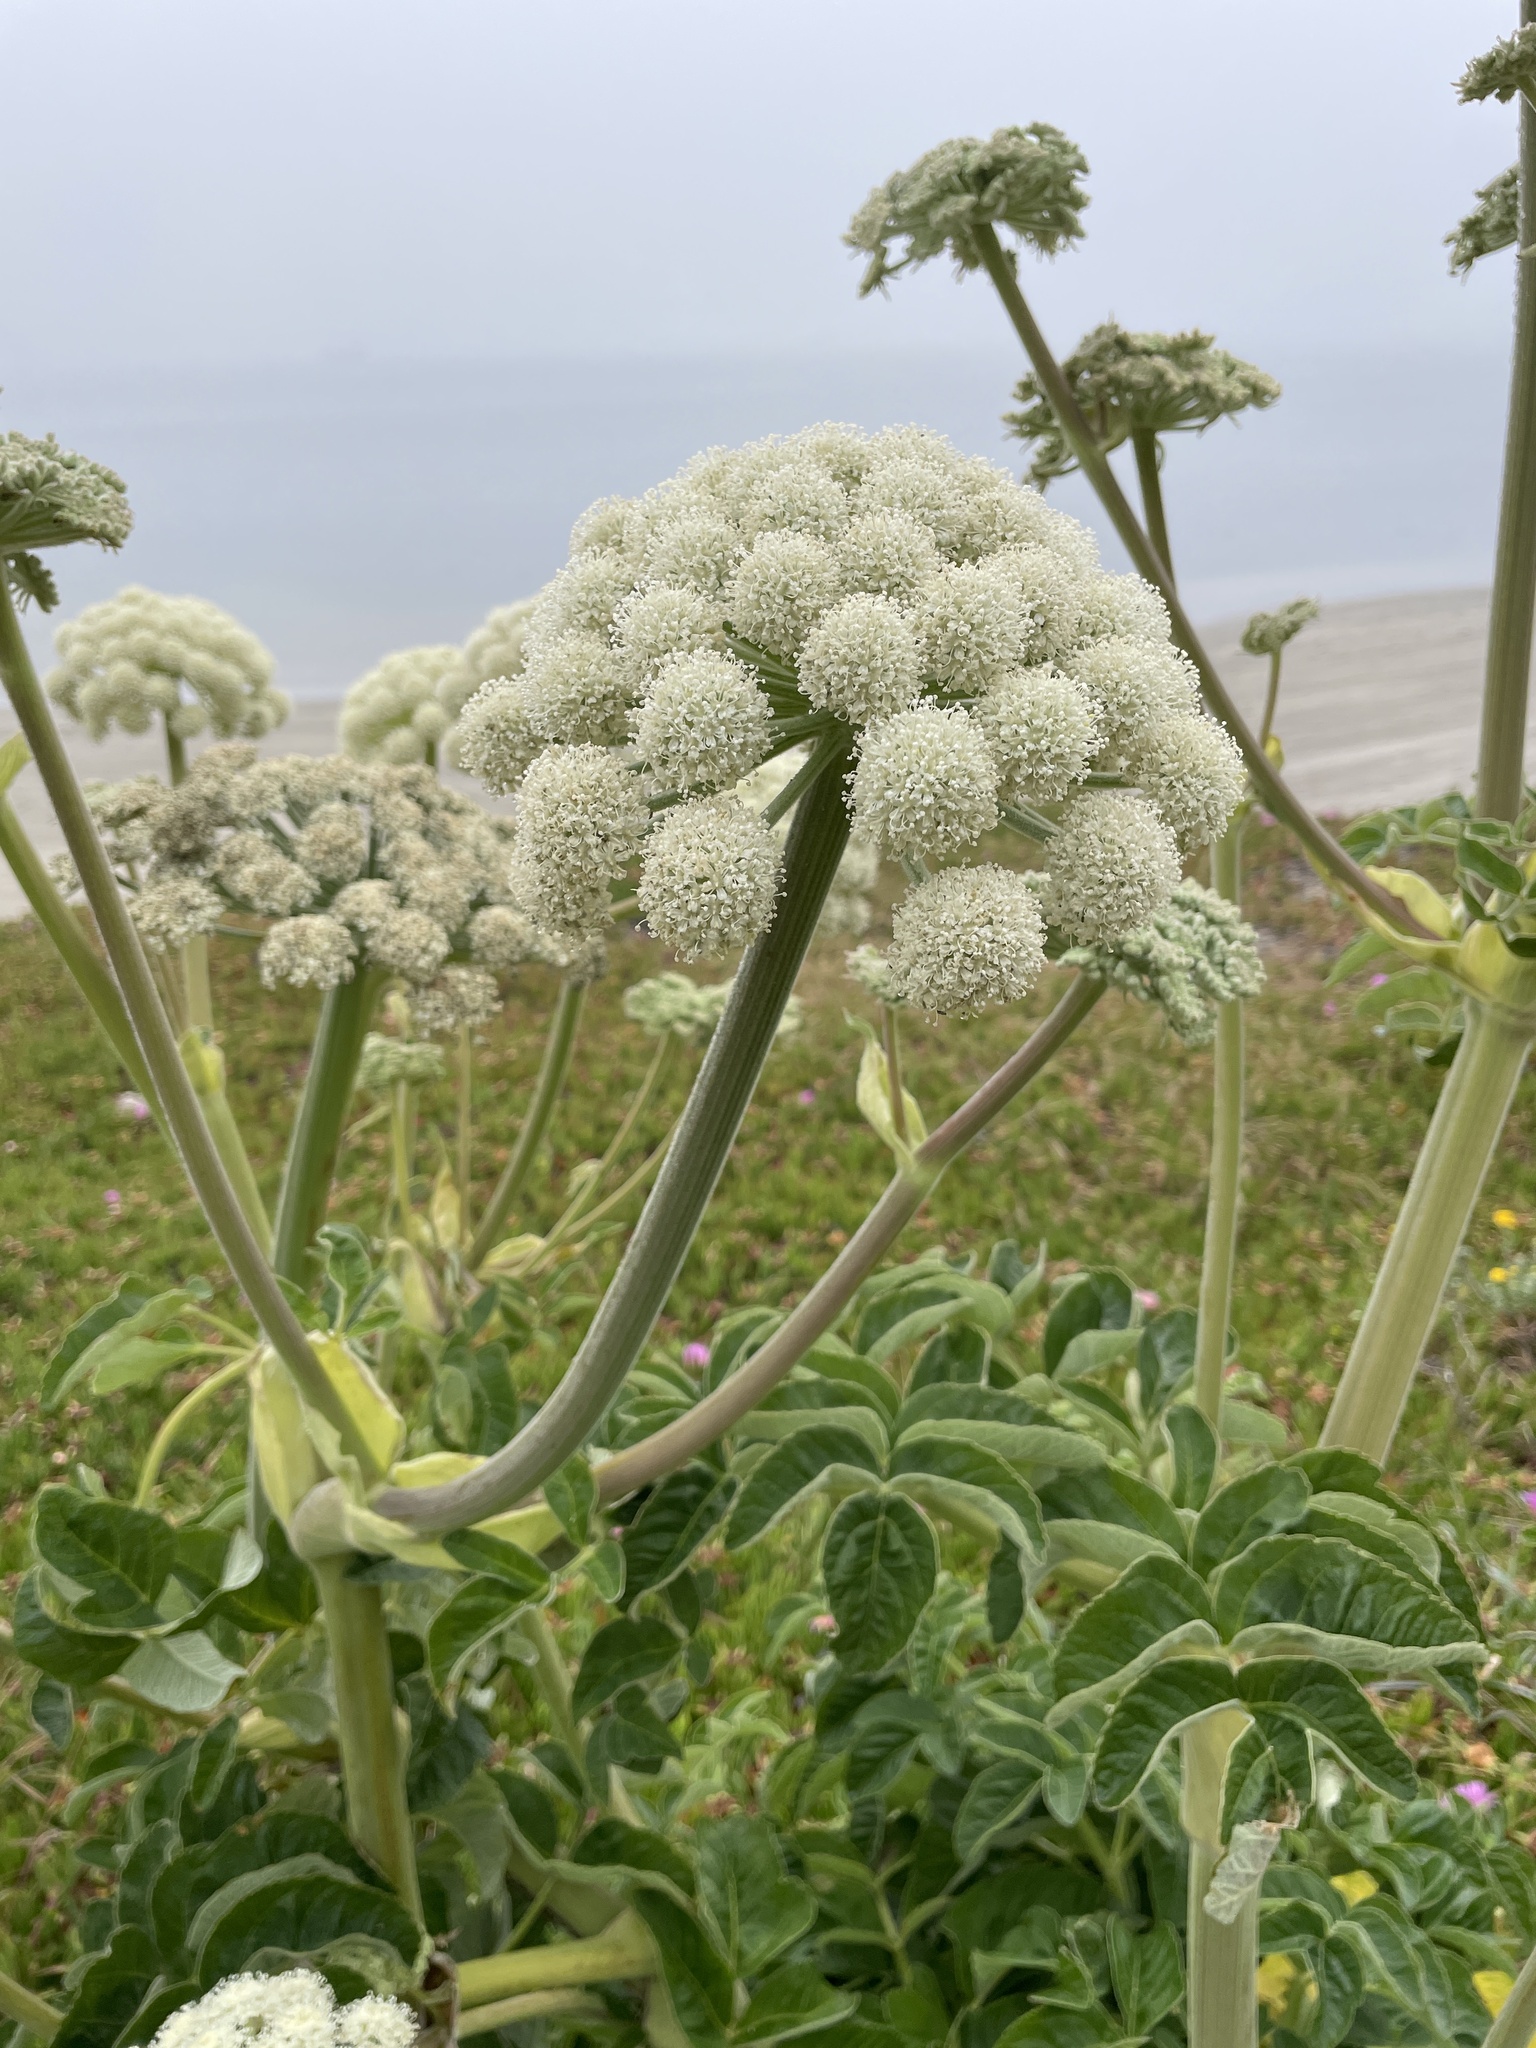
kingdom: Plantae
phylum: Tracheophyta
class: Magnoliopsida
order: Apiales
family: Apiaceae
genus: Angelica
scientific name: Angelica hendersonii
